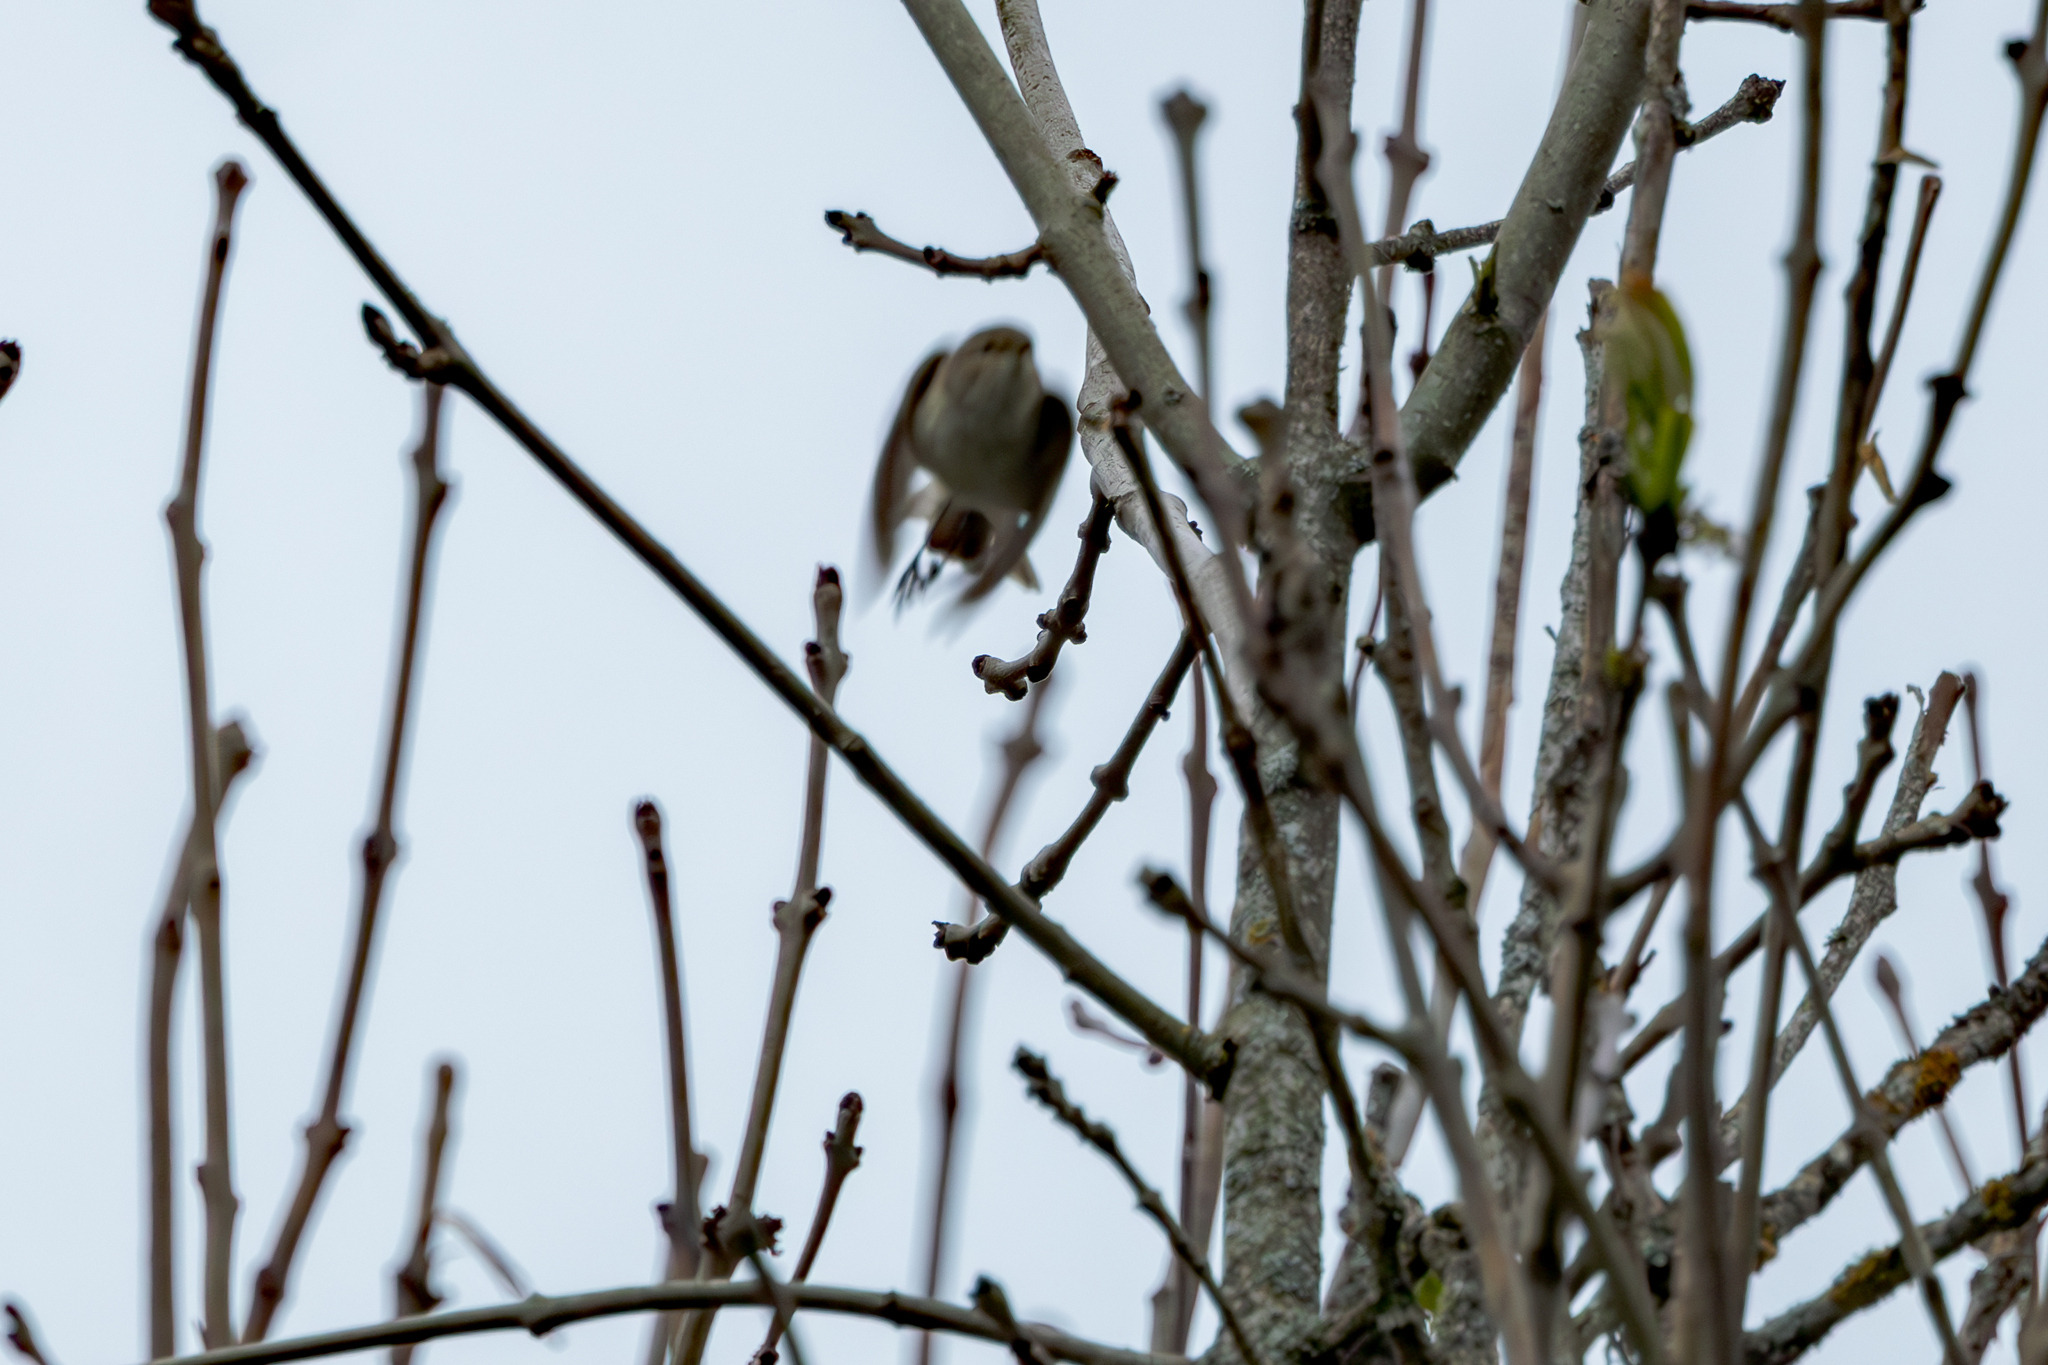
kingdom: Animalia
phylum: Chordata
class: Aves
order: Passeriformes
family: Phylloscopidae
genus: Phylloscopus
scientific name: Phylloscopus collybita
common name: Common chiffchaff
